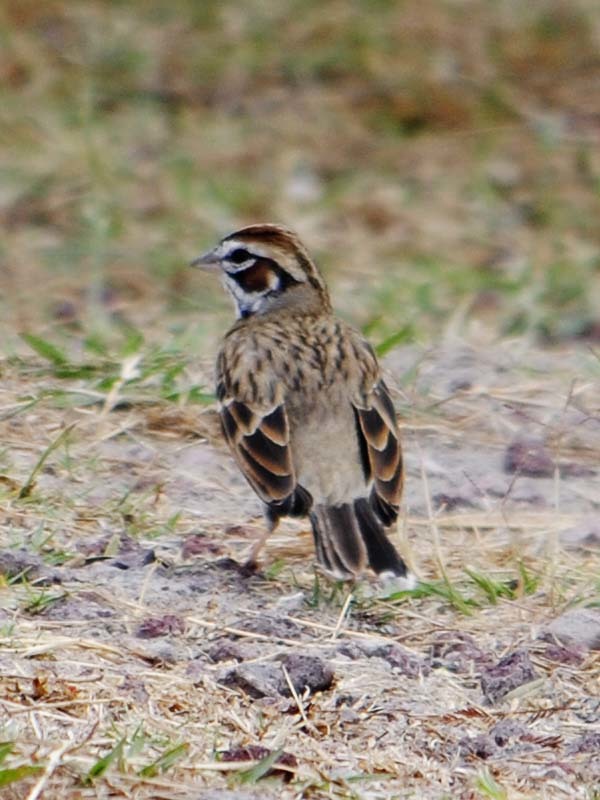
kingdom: Animalia
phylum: Chordata
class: Aves
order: Passeriformes
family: Passerellidae
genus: Chondestes
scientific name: Chondestes grammacus
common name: Lark sparrow
